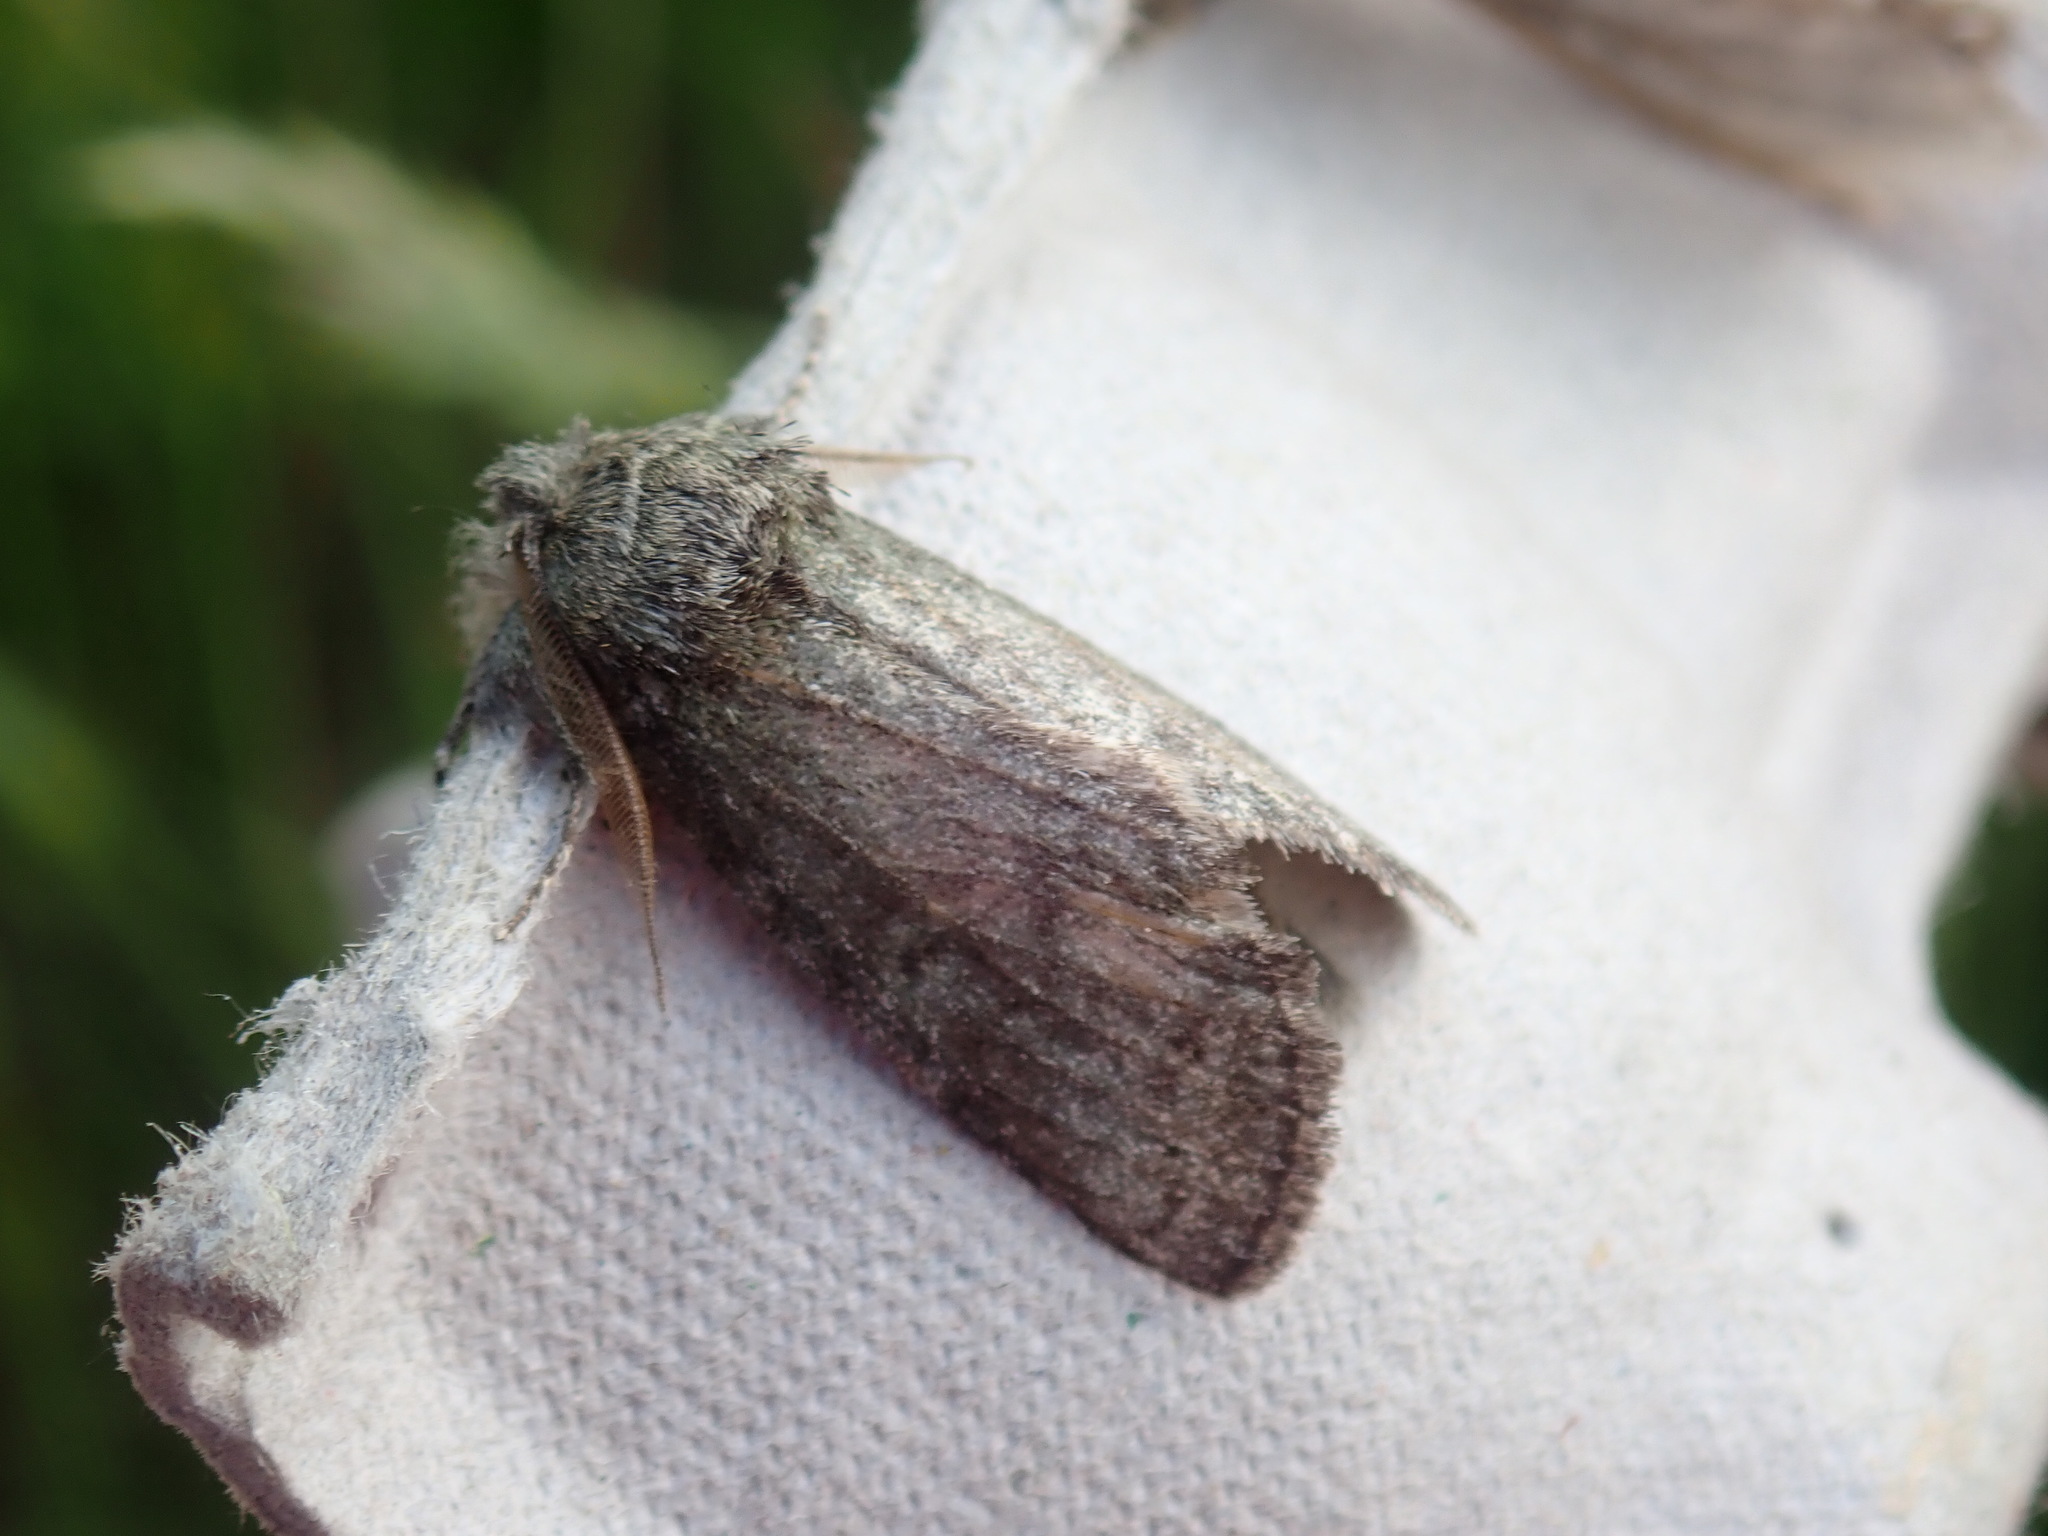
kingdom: Animalia
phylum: Arthropoda
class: Insecta
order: Lepidoptera
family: Notodontidae
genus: Disphragis
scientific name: Disphragis Cecrita guttivitta
